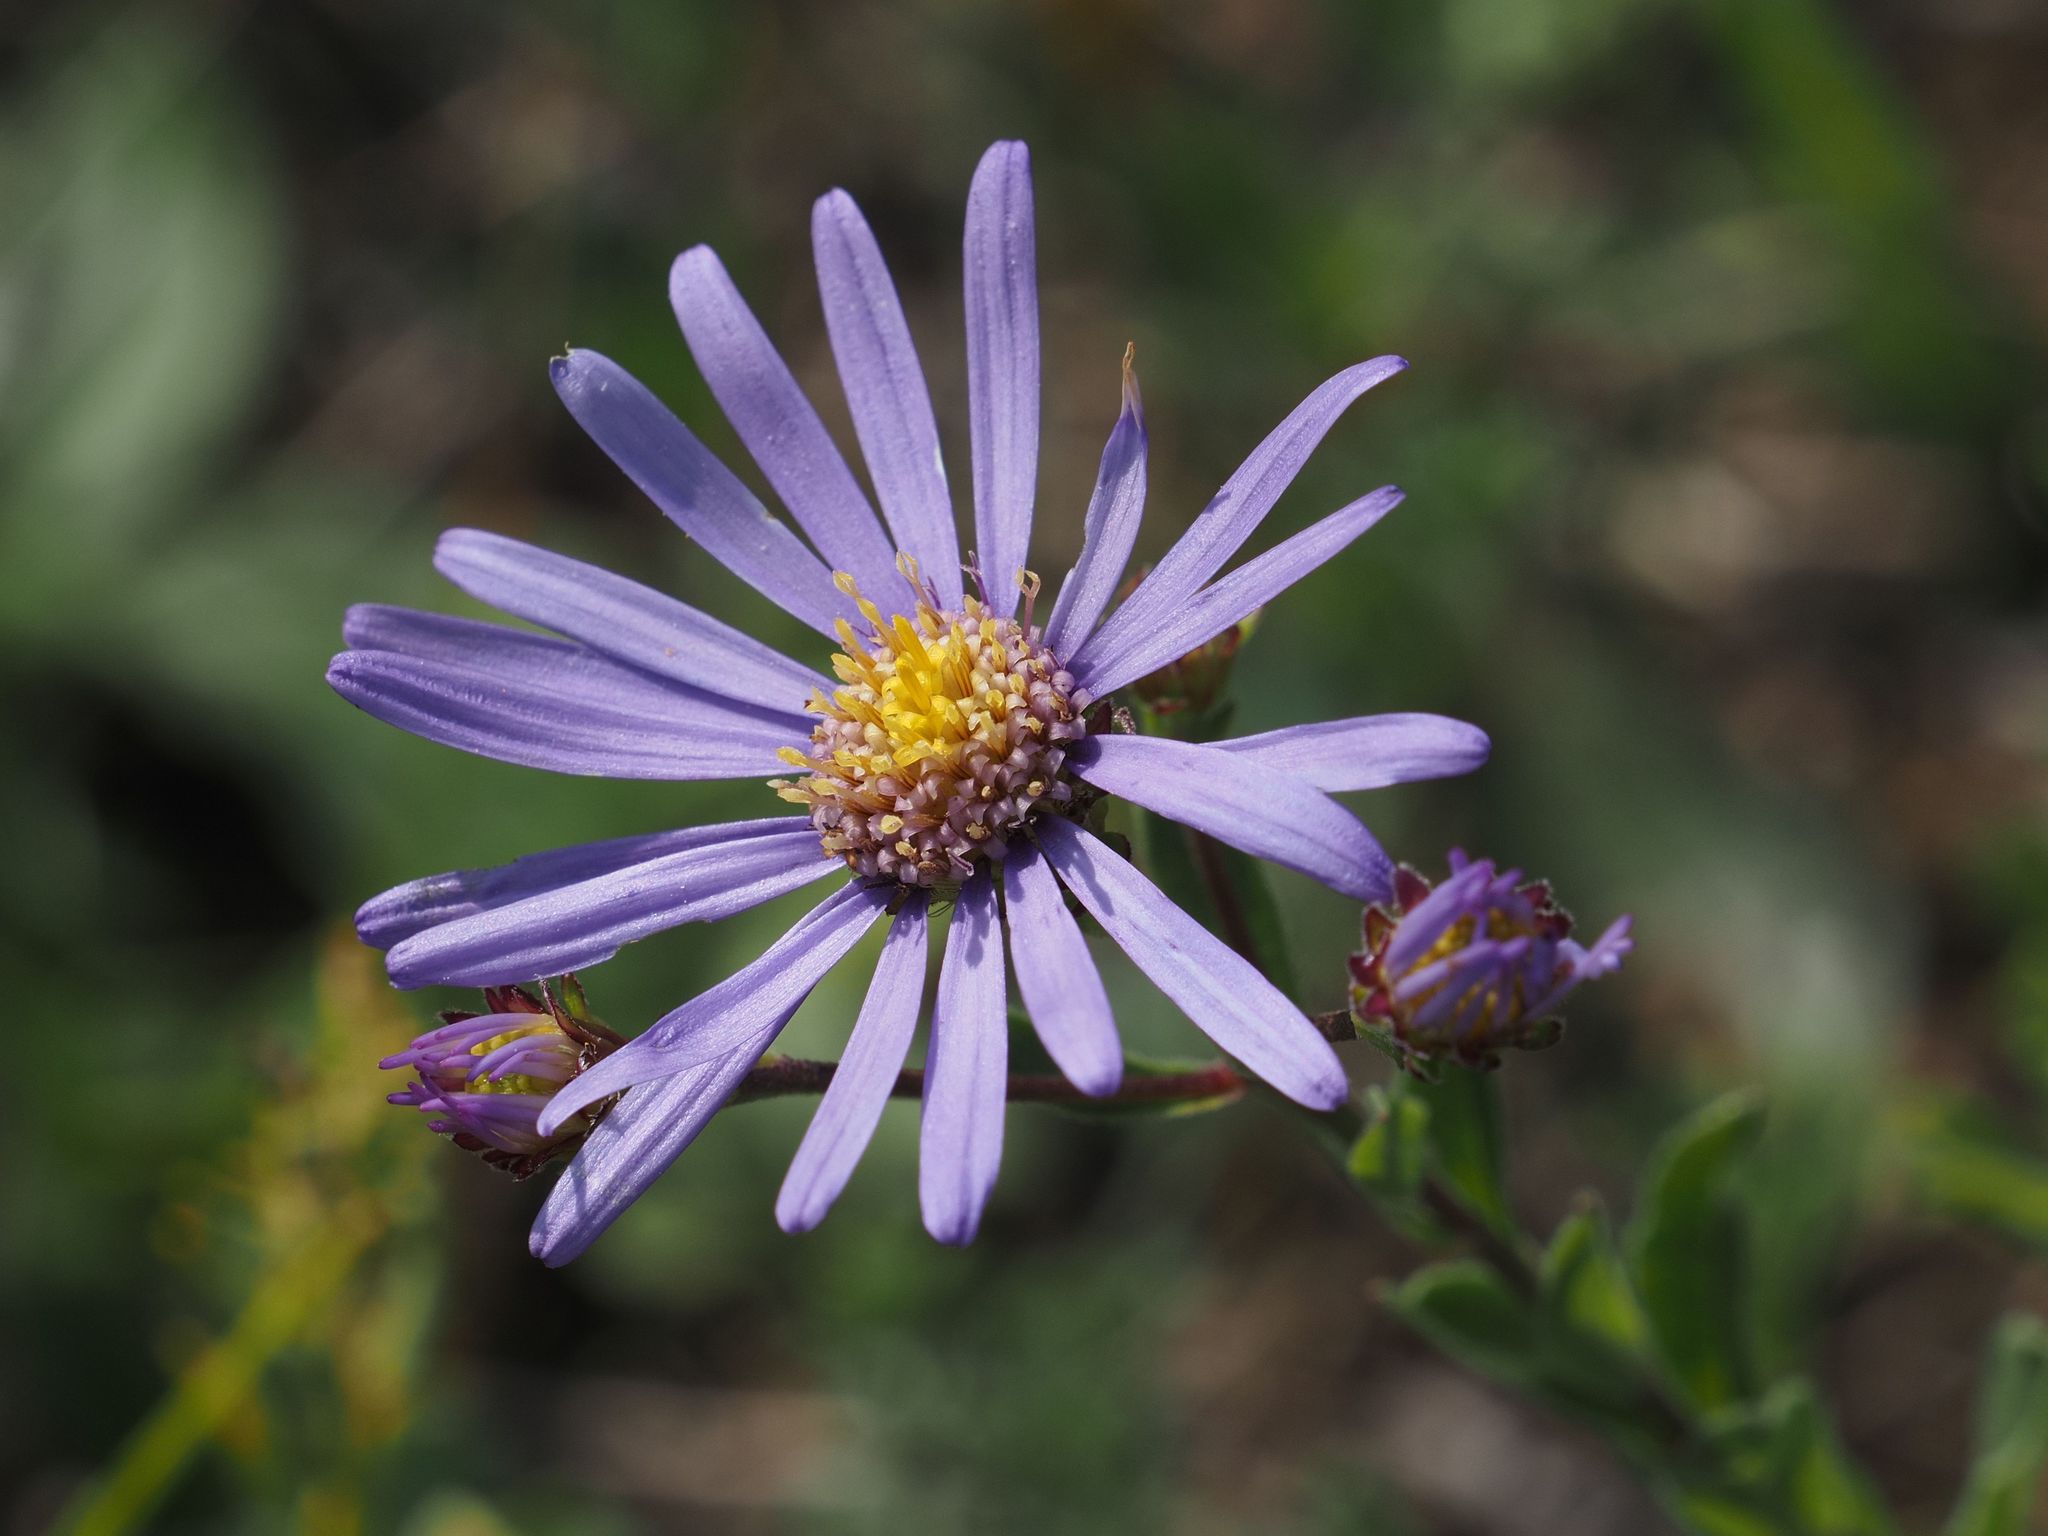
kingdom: Plantae
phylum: Tracheophyta
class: Magnoliopsida
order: Asterales
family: Asteraceae
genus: Aster
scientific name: Aster amellus
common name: European michaelmas daisy
